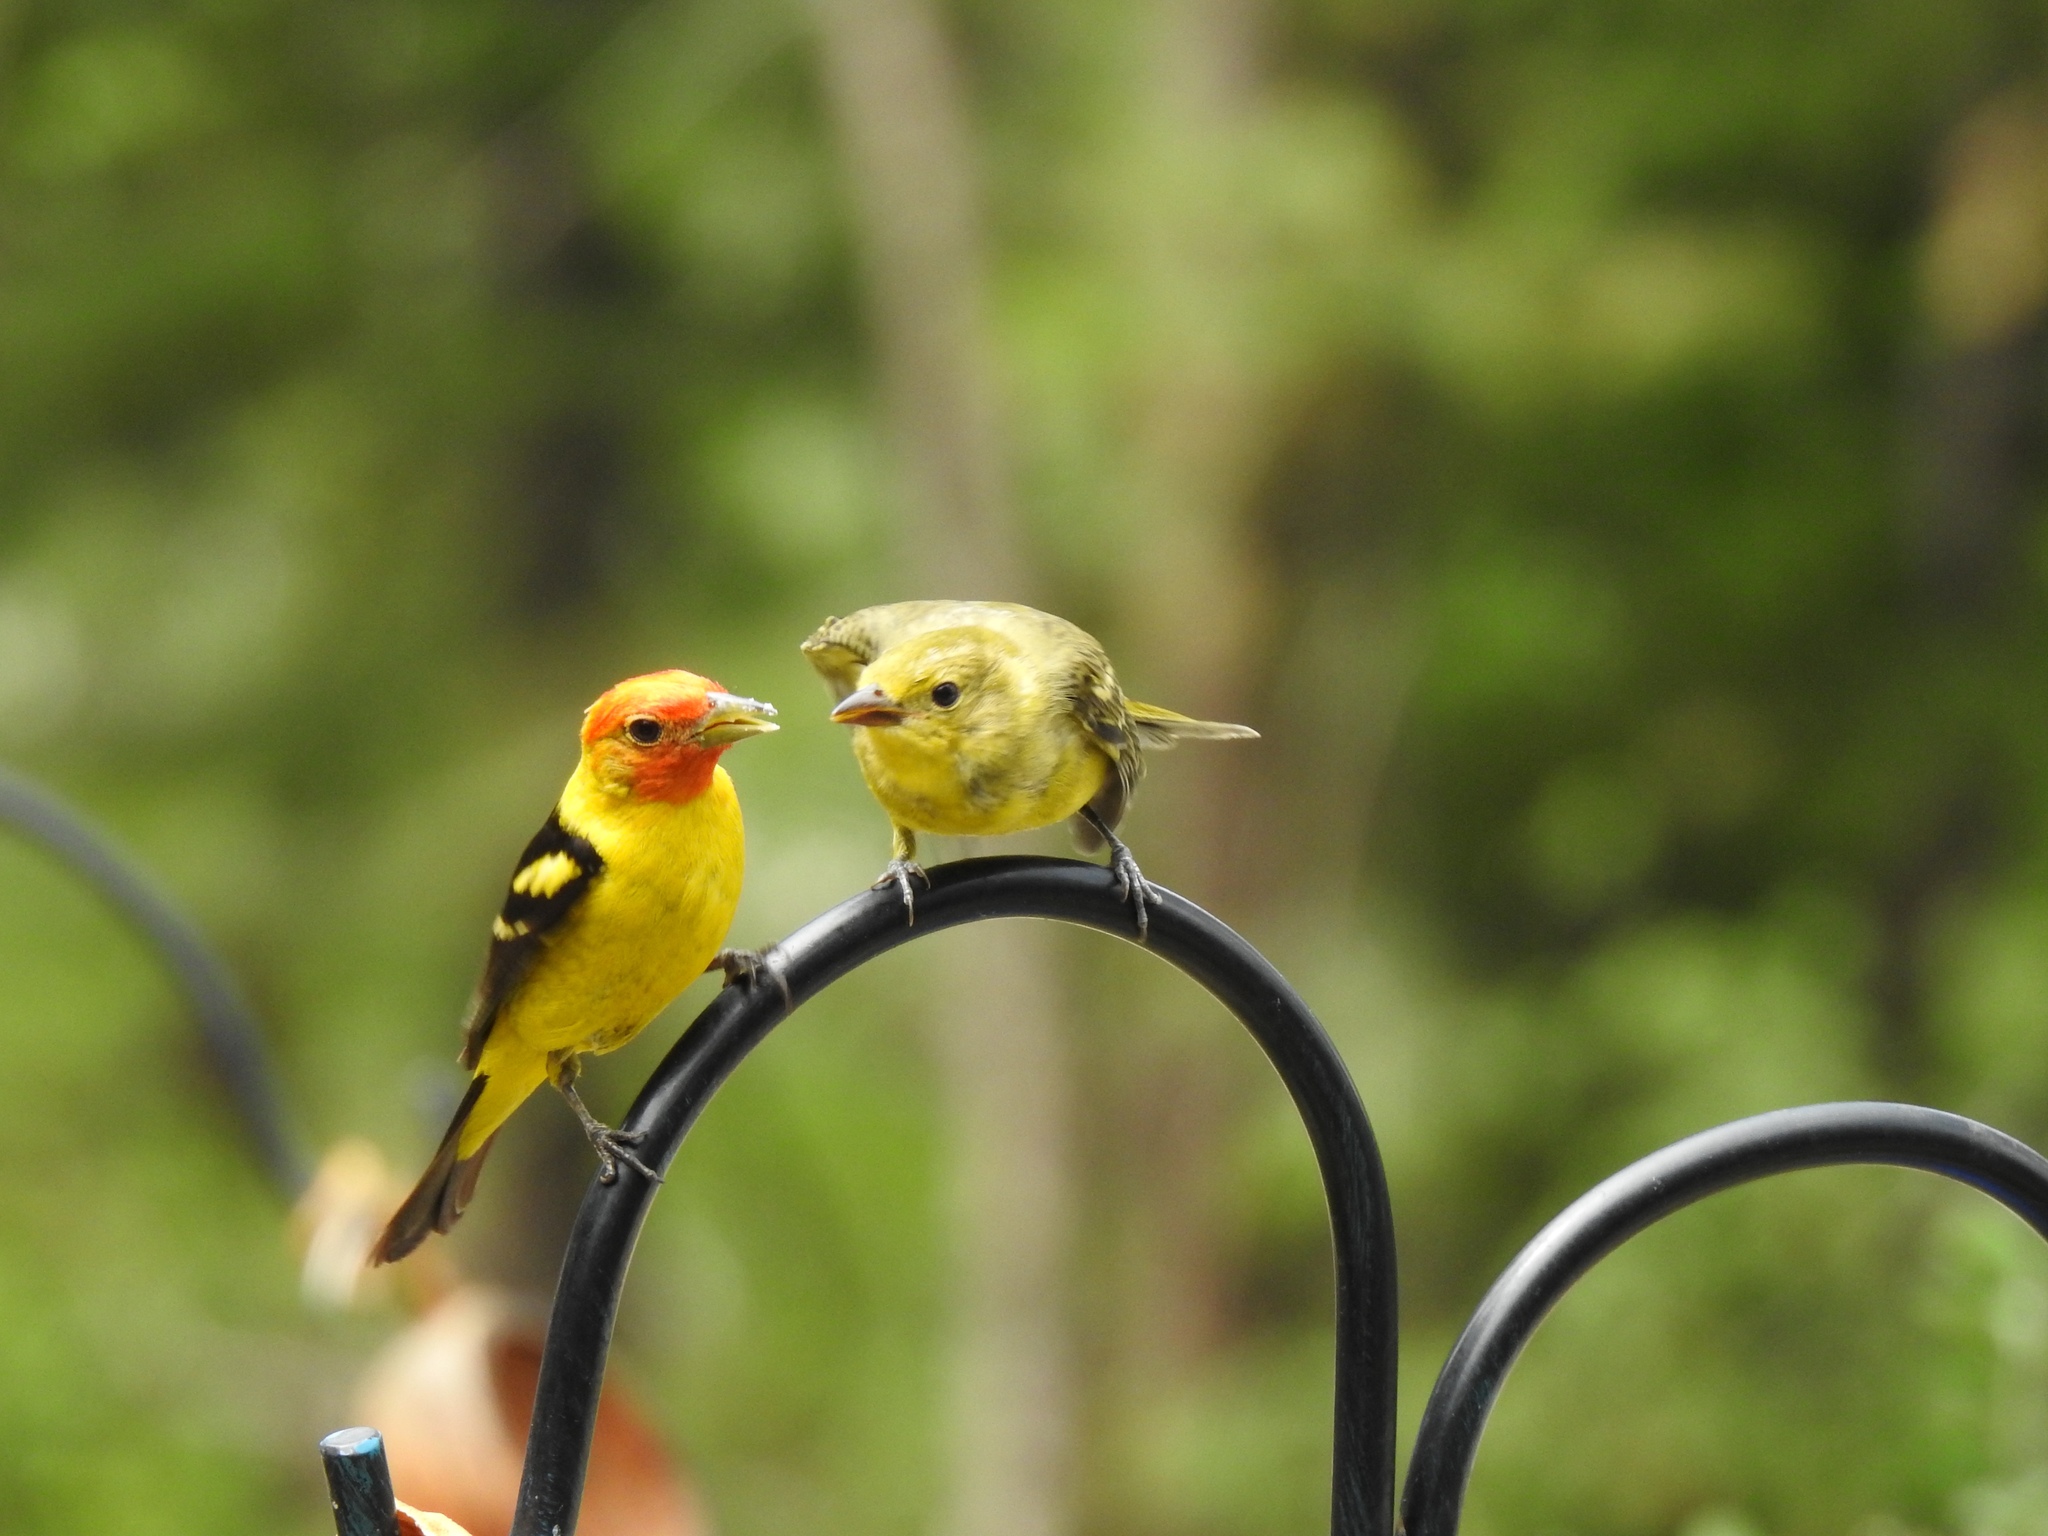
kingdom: Animalia
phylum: Chordata
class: Aves
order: Passeriformes
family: Cardinalidae
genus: Piranga
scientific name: Piranga ludoviciana
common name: Western tanager
